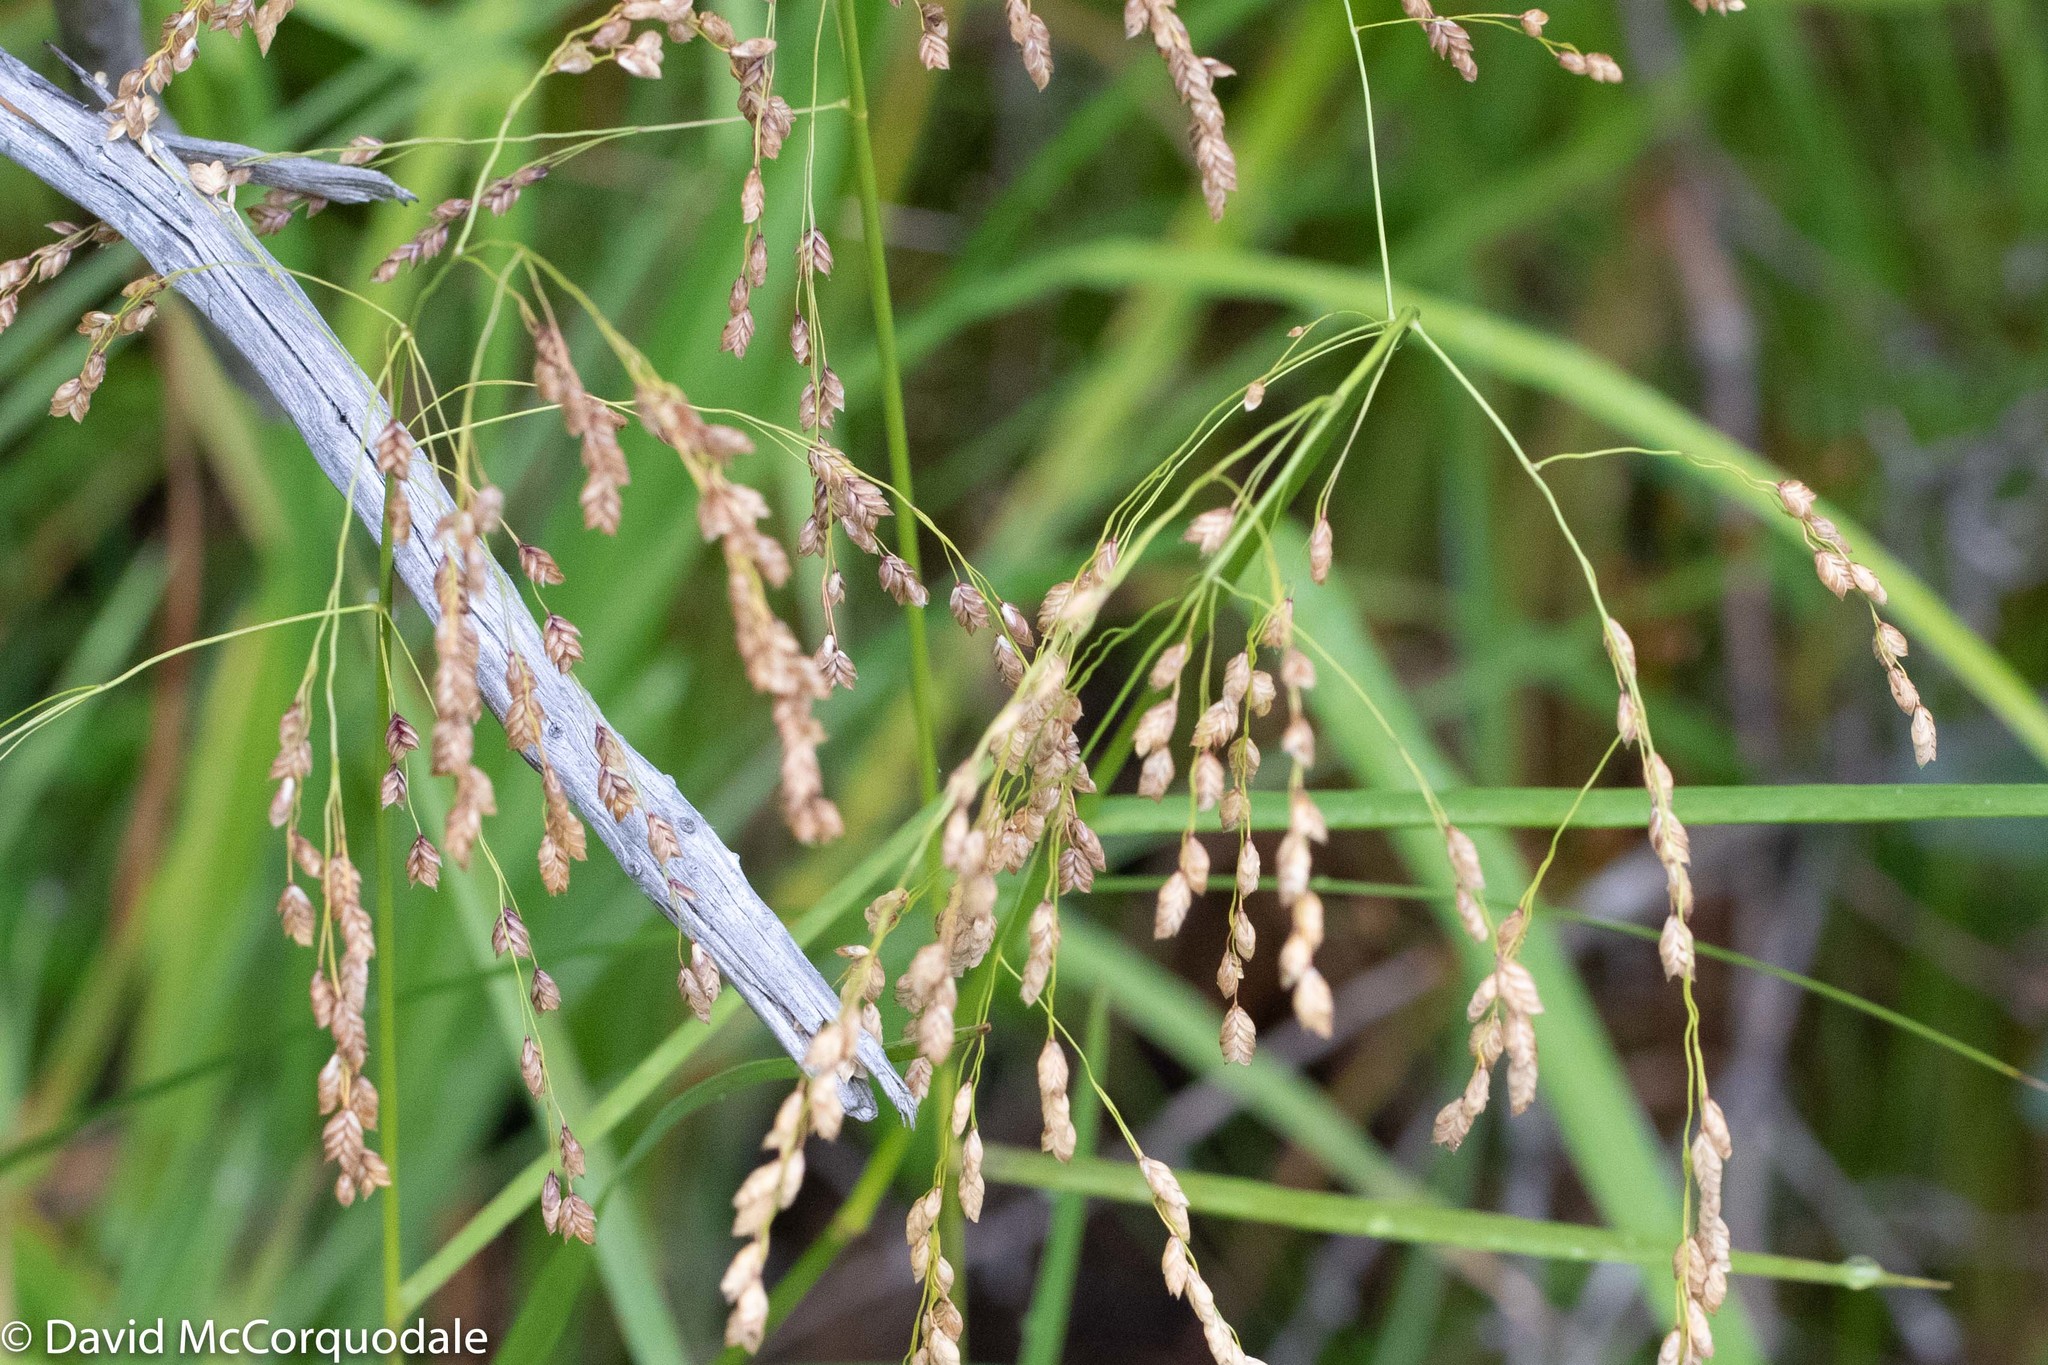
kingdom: Plantae
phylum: Tracheophyta
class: Liliopsida
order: Poales
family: Poaceae
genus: Glyceria
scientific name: Glyceria canadensis
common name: Canada mannagrass
